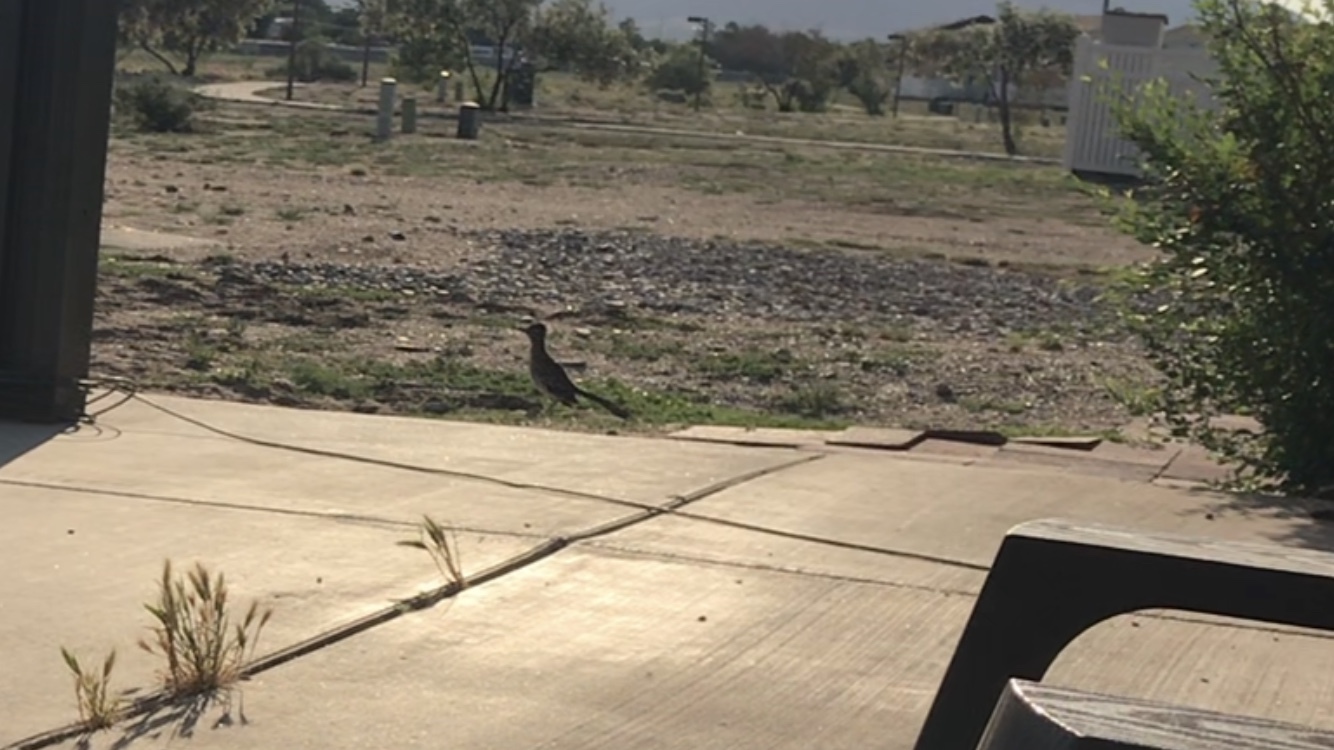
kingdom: Animalia
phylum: Chordata
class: Aves
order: Cuculiformes
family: Cuculidae
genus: Geococcyx
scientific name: Geococcyx californianus
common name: Greater roadrunner
